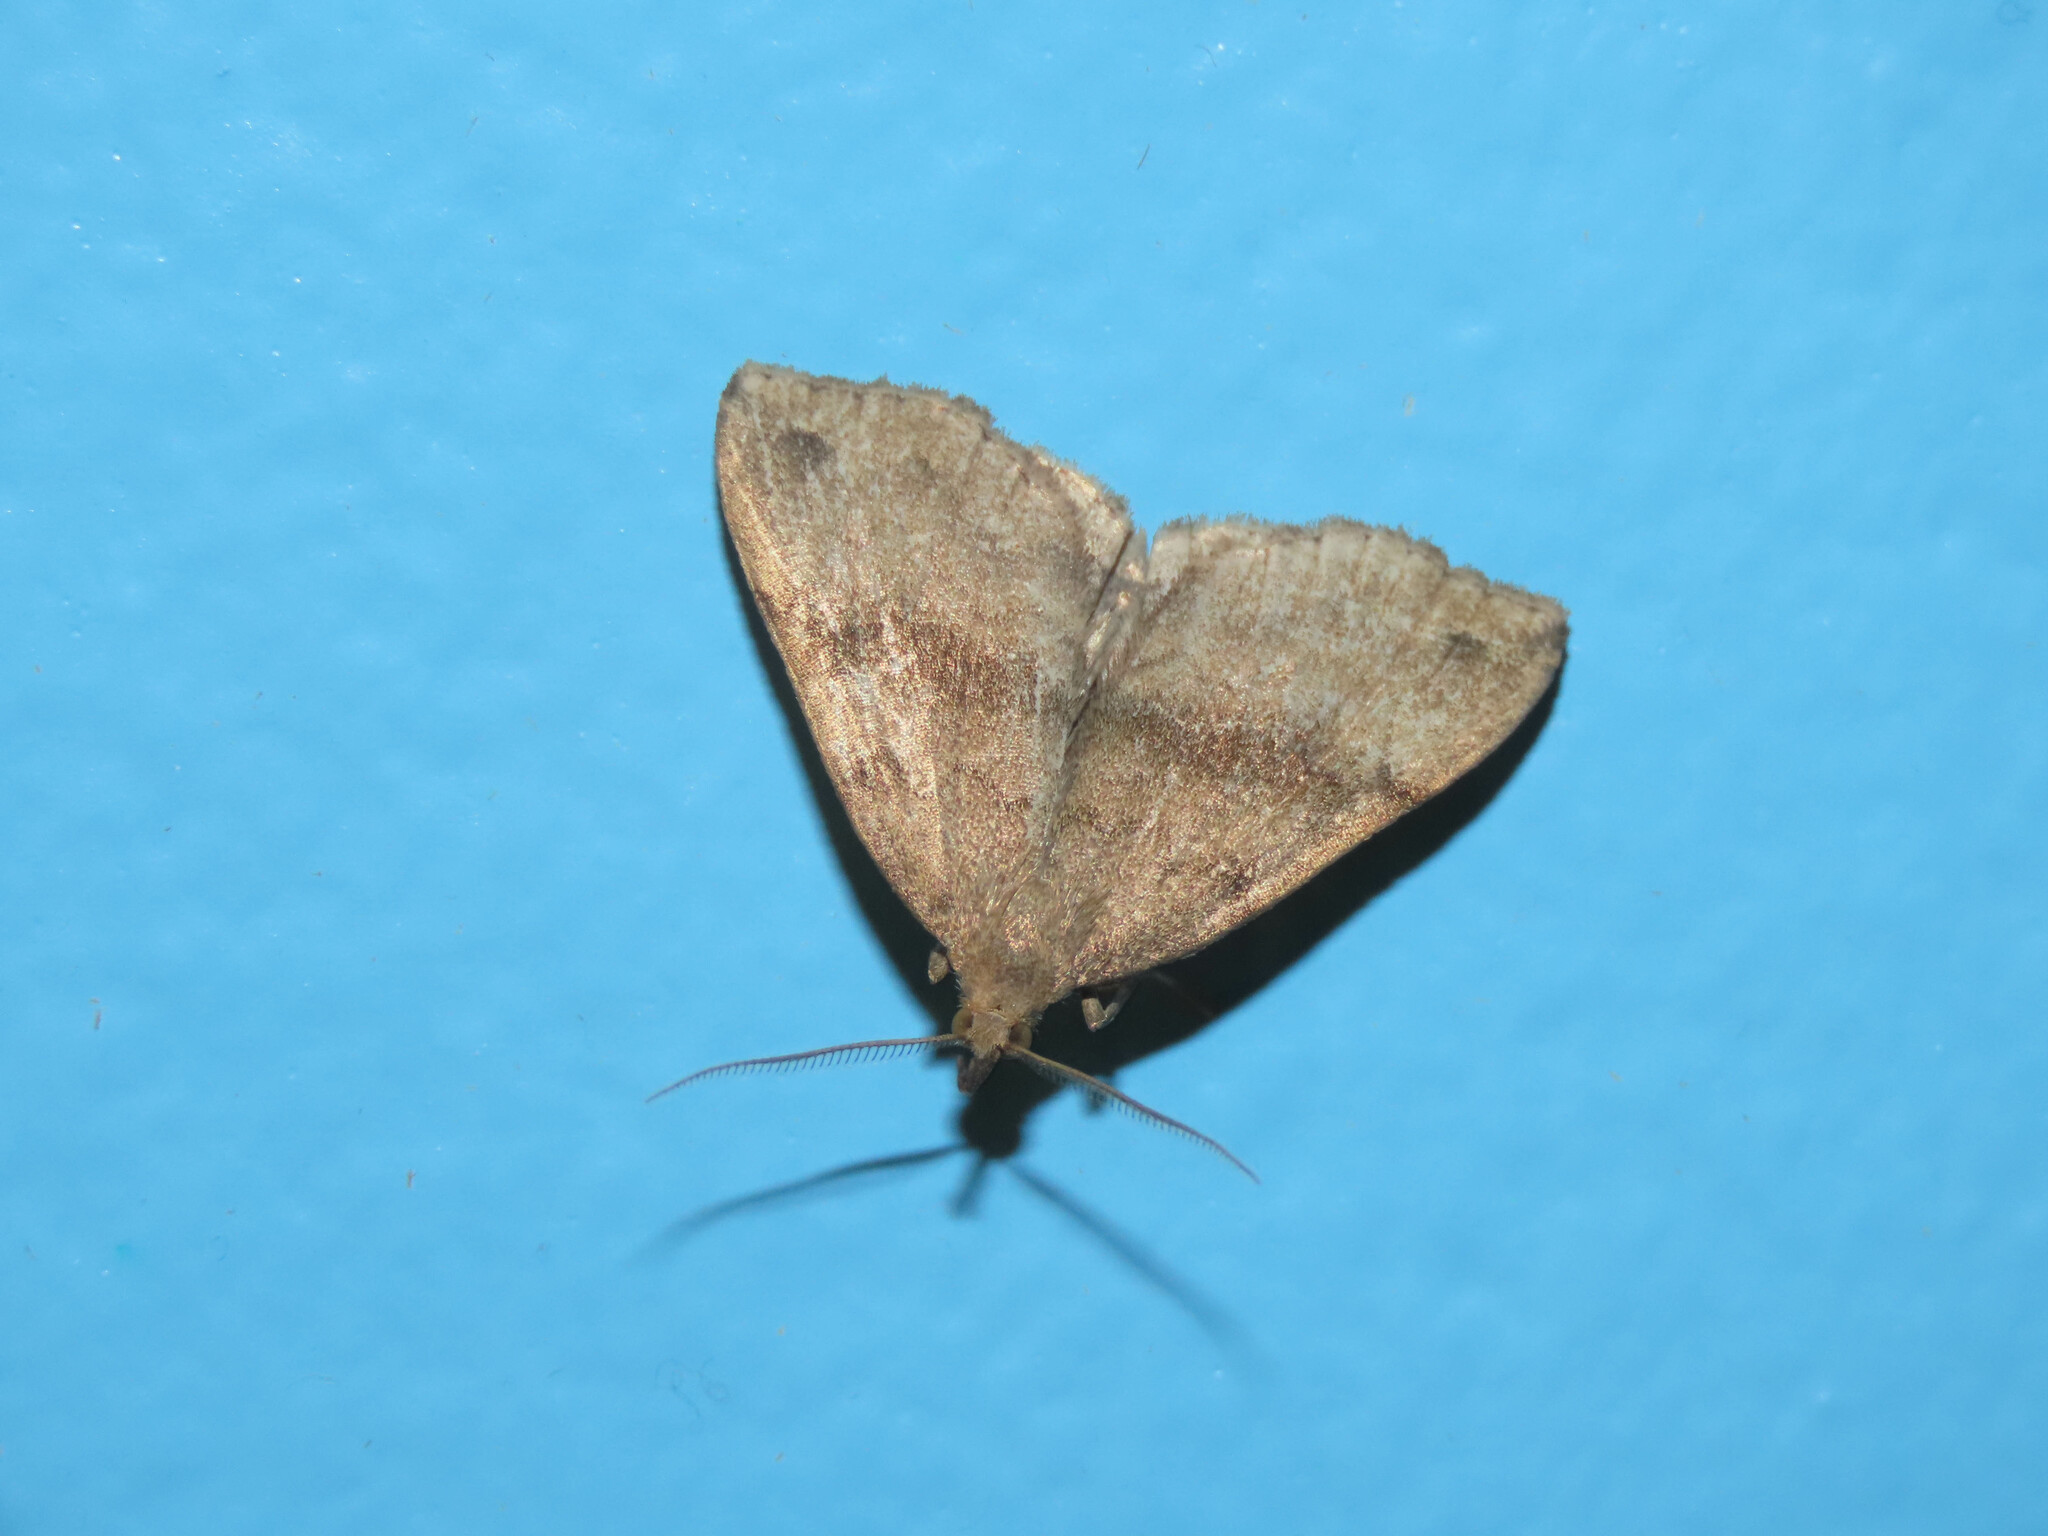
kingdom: Animalia
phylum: Arthropoda
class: Insecta
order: Lepidoptera
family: Erebidae
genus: Phalaenostola
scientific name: Phalaenostola eumelusalis
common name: Dark phalaenostola moth
